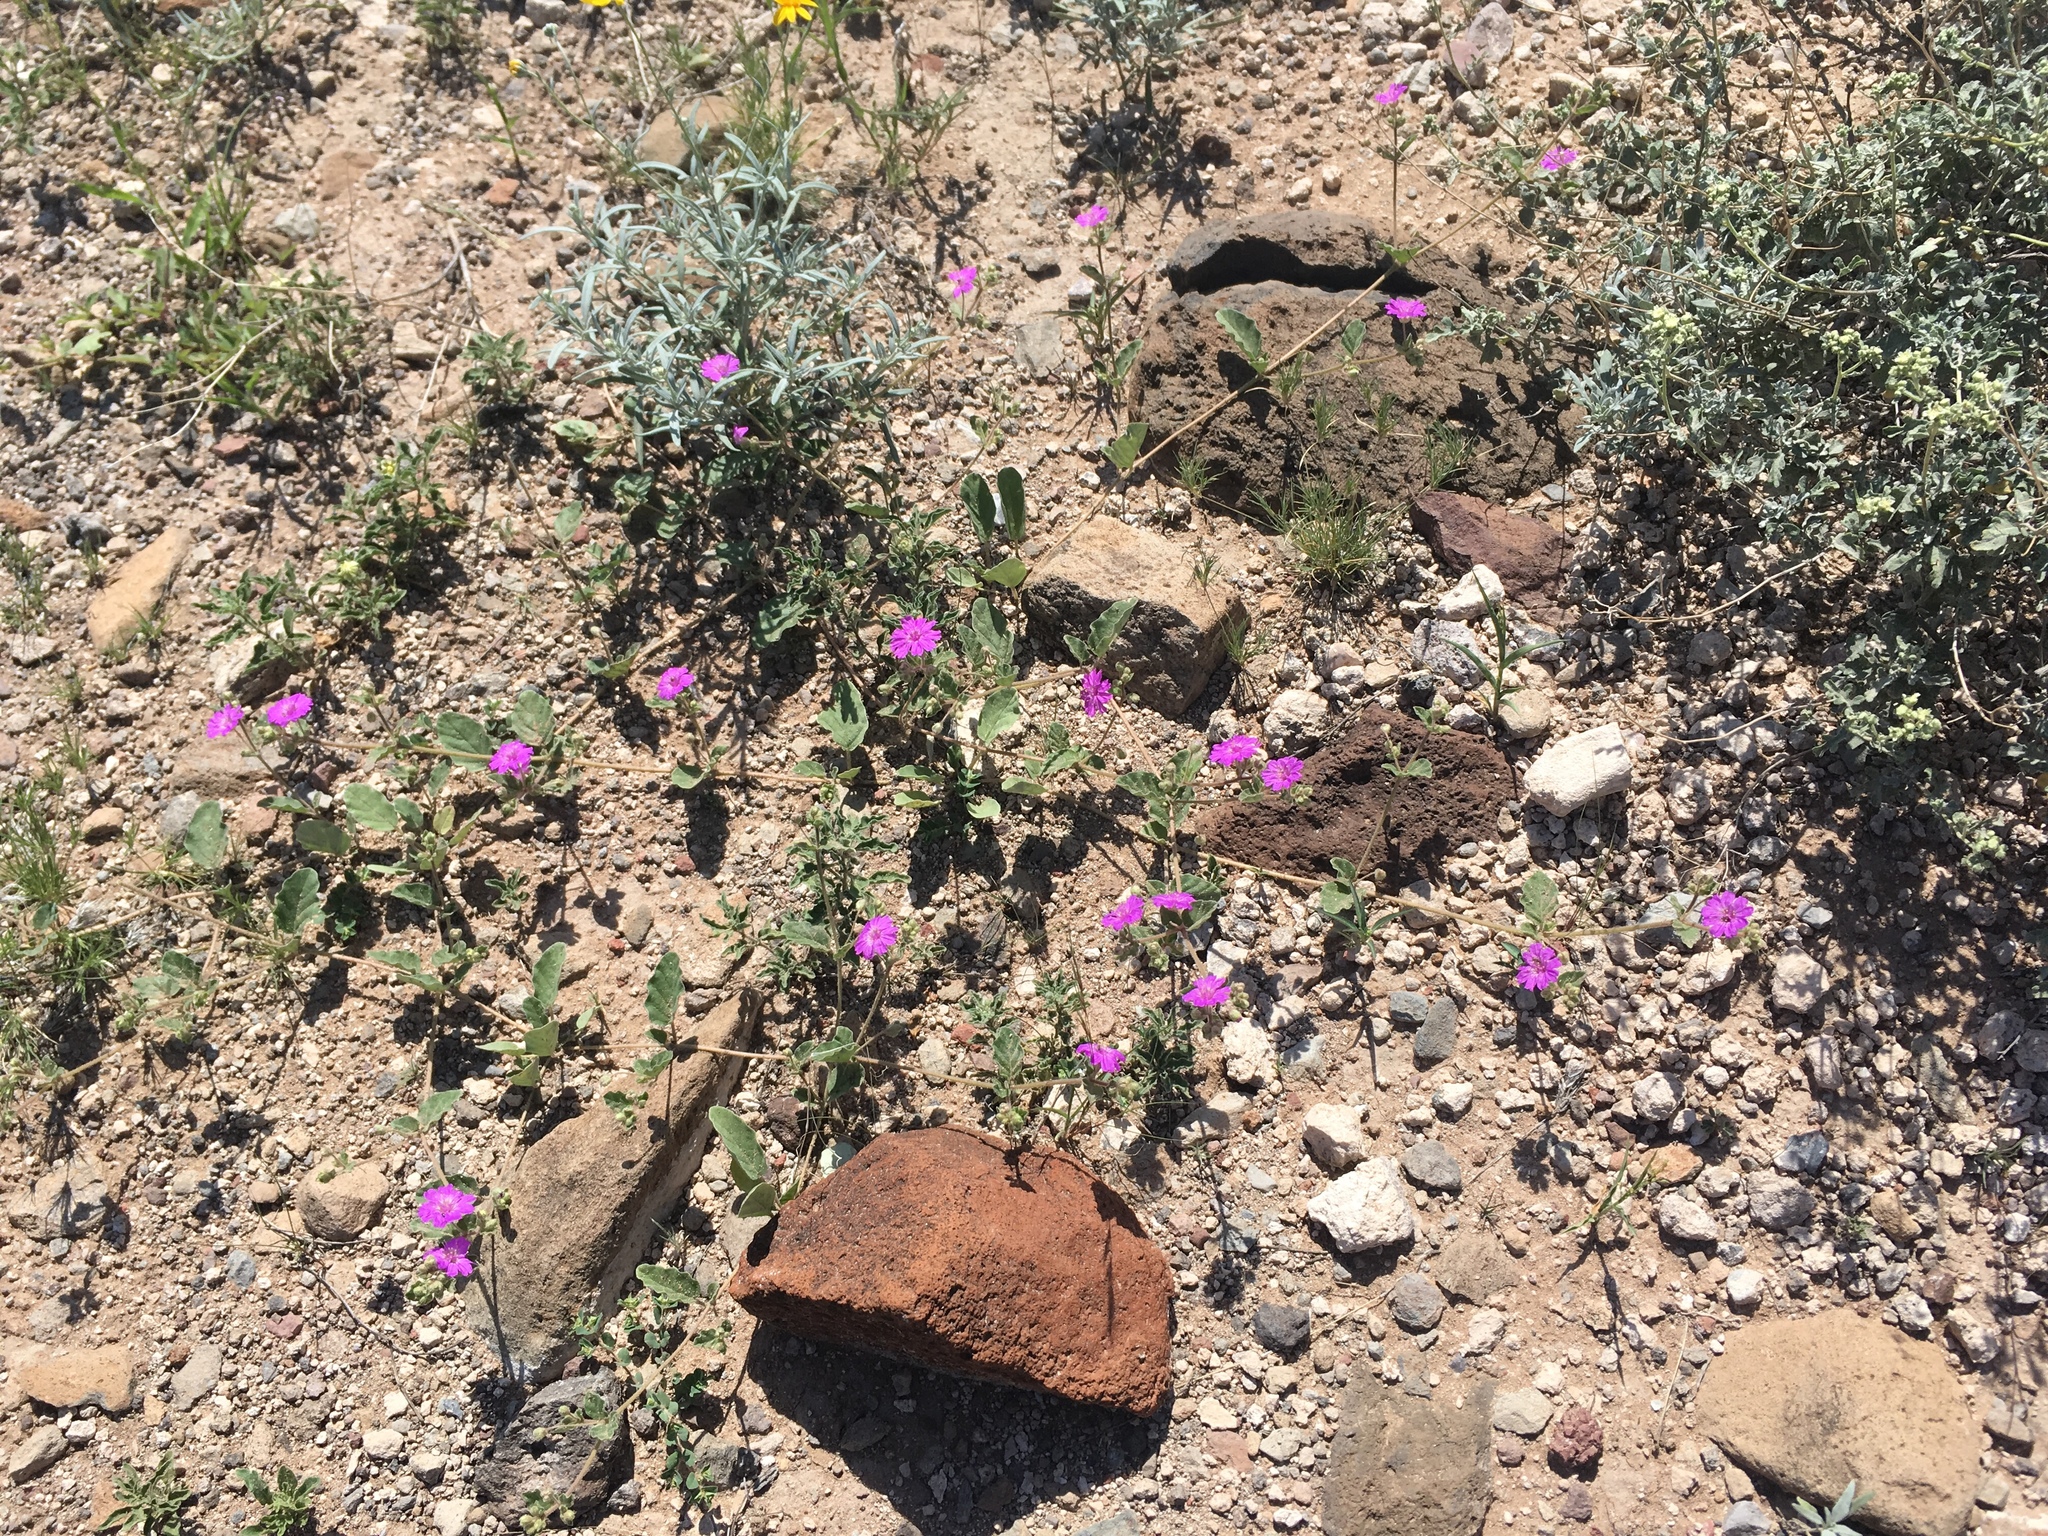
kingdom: Plantae
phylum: Tracheophyta
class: Magnoliopsida
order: Caryophyllales
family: Nyctaginaceae
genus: Allionia
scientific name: Allionia incarnata
